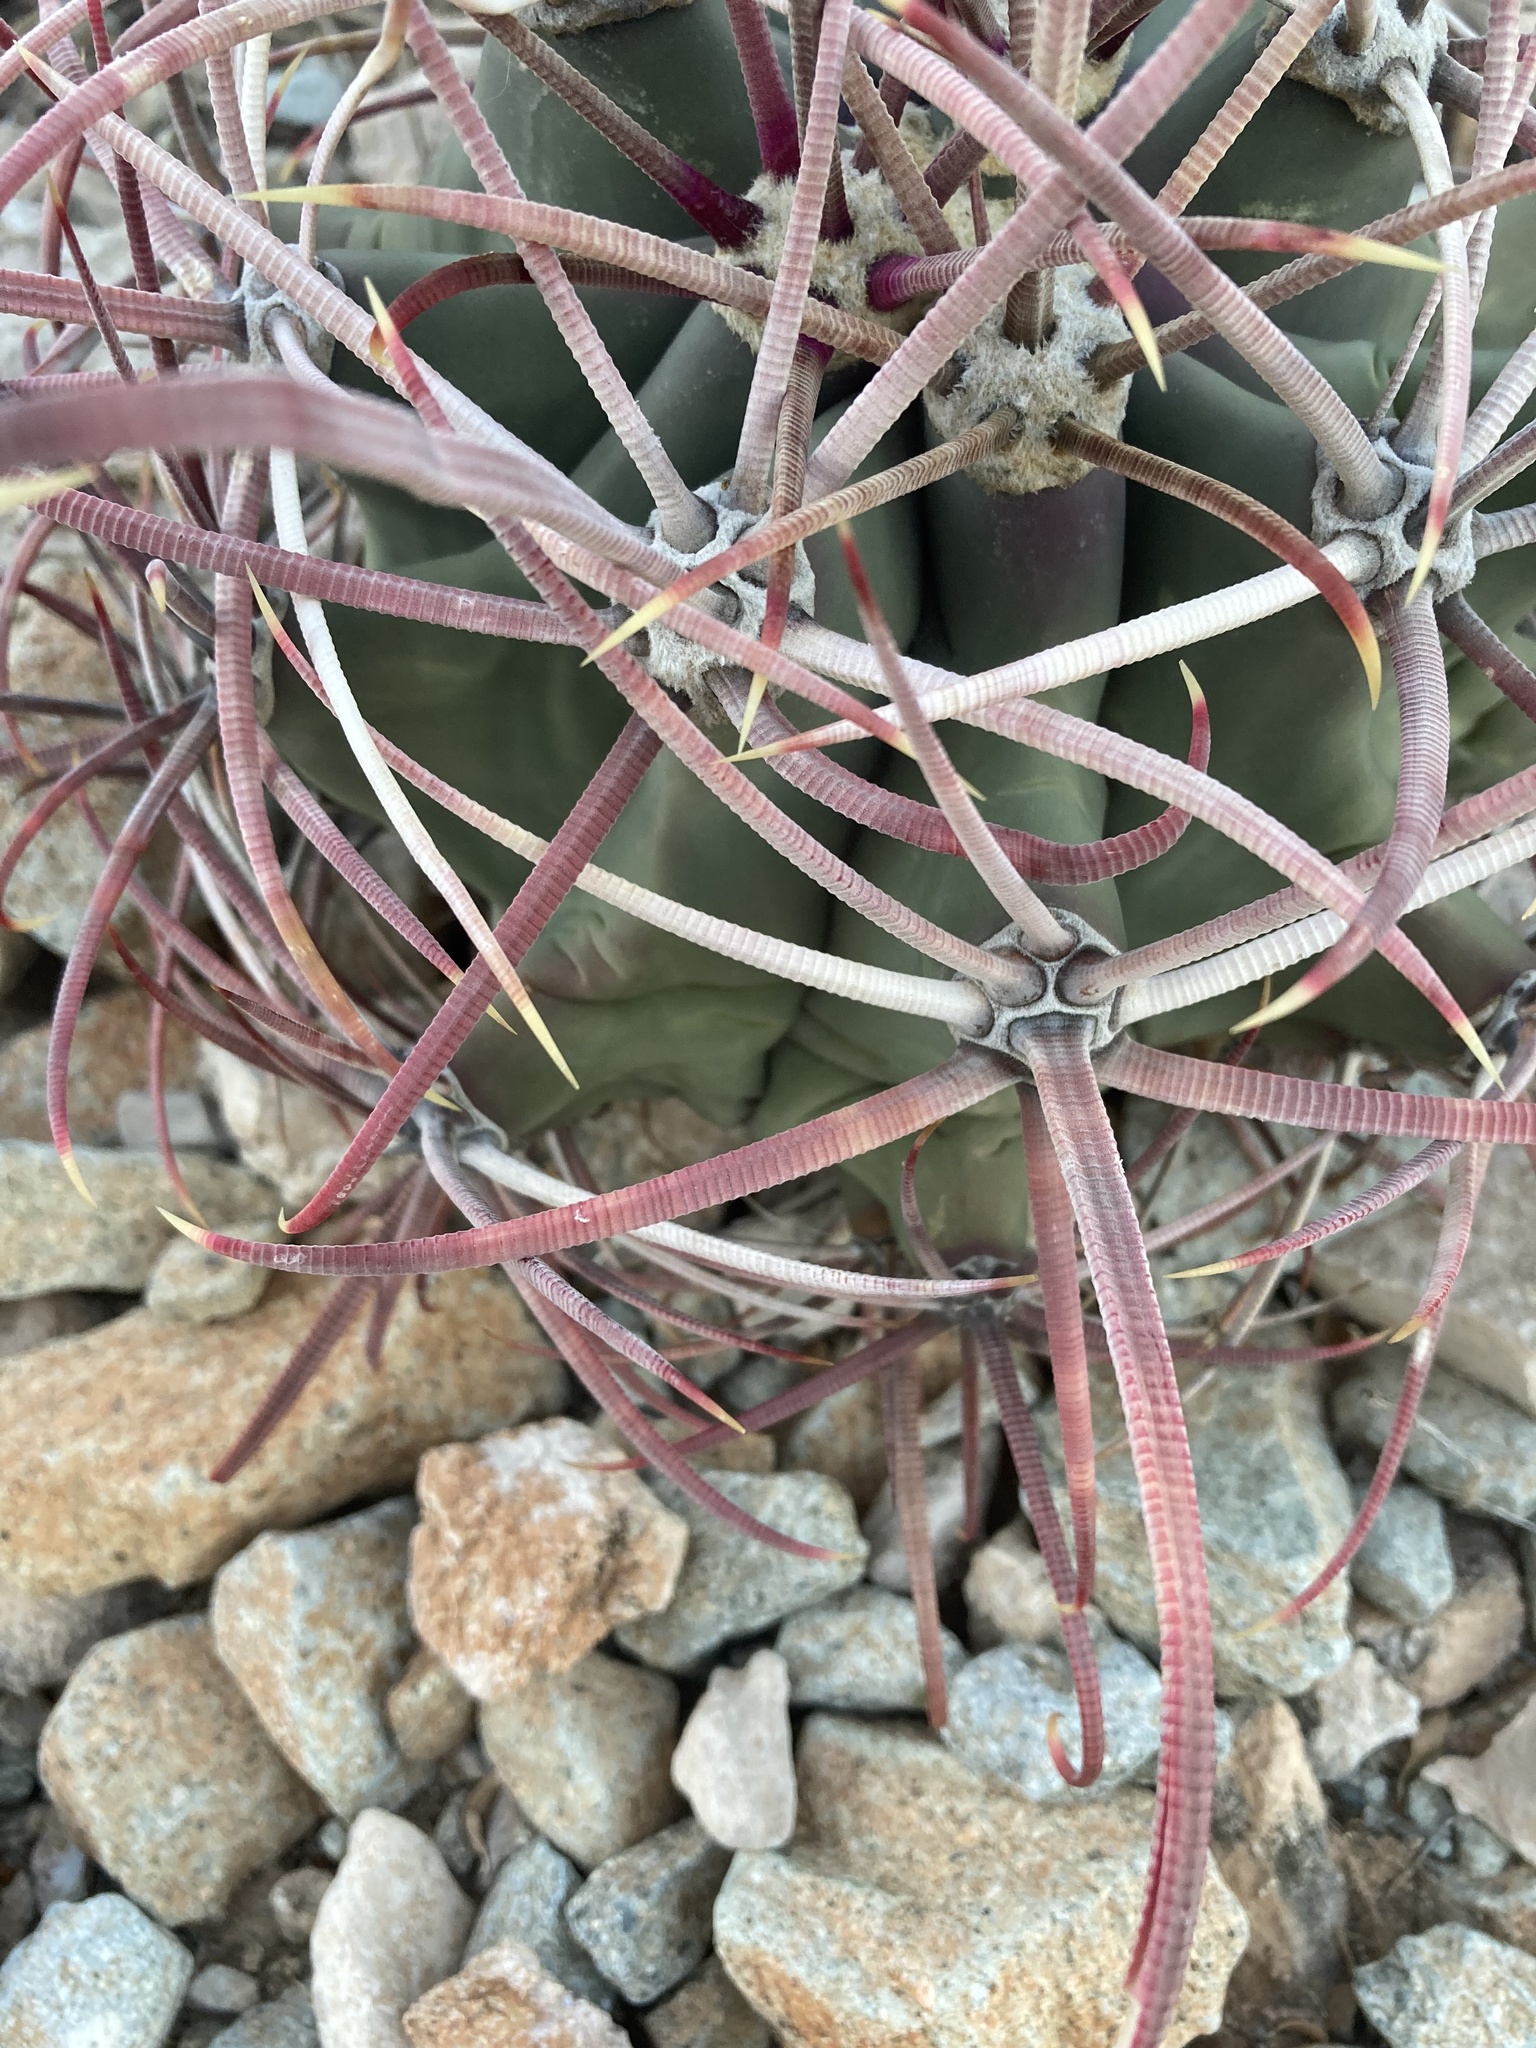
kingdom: Plantae
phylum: Tracheophyta
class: Magnoliopsida
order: Caryophyllales
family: Cactaceae
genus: Ferocactus
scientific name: Ferocactus emoryi
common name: Emory's barrel cactus
